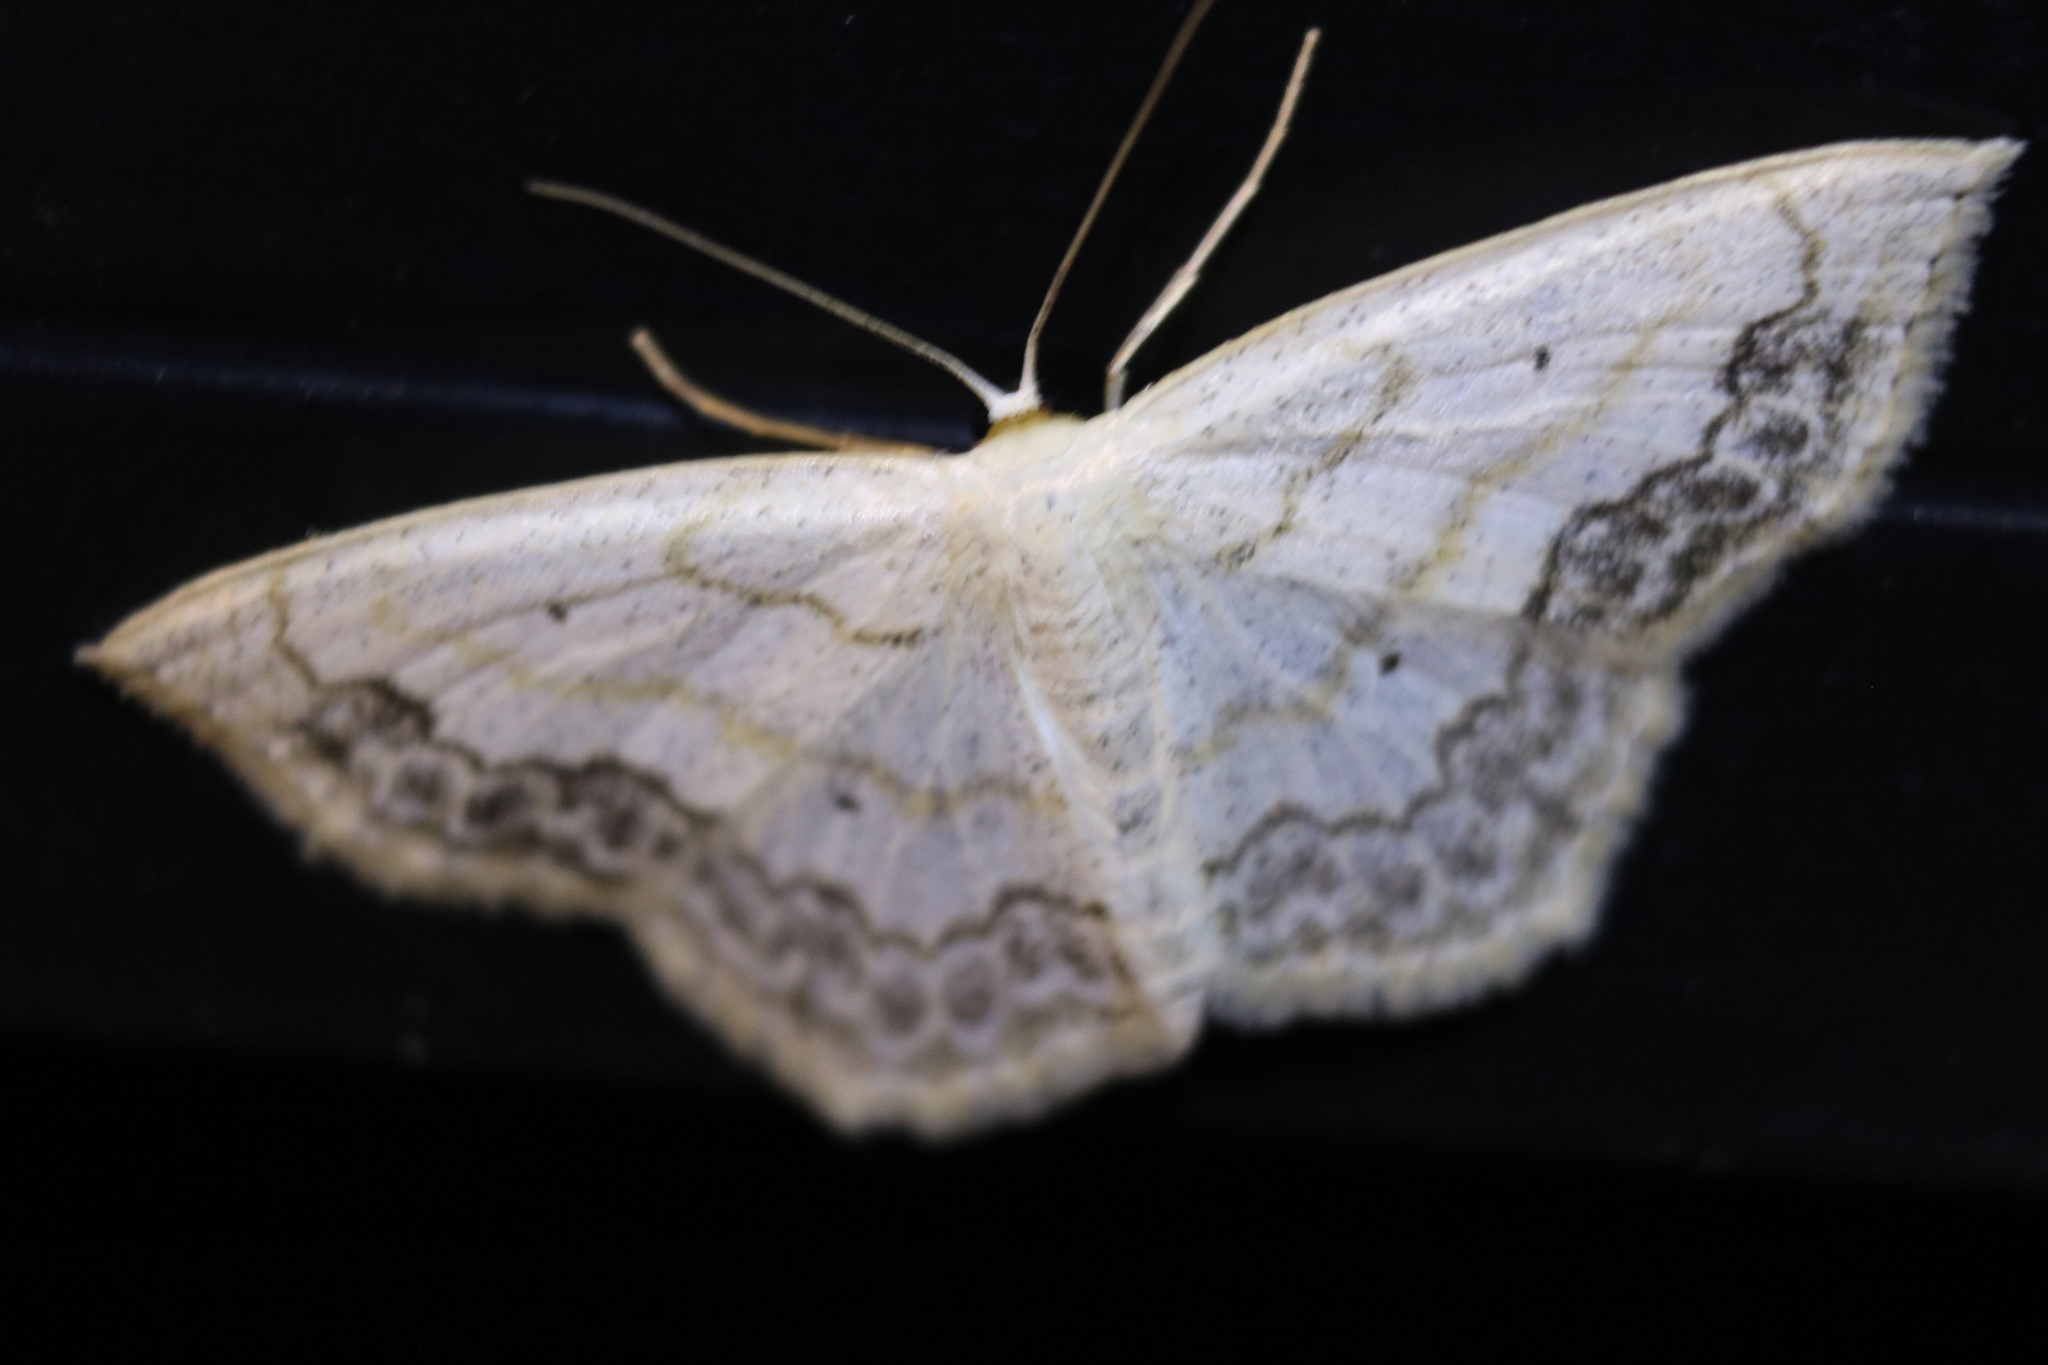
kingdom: Animalia
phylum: Arthropoda
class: Insecta
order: Lepidoptera
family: Geometridae
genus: Scopula
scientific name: Scopula limboundata
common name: Large lace border
